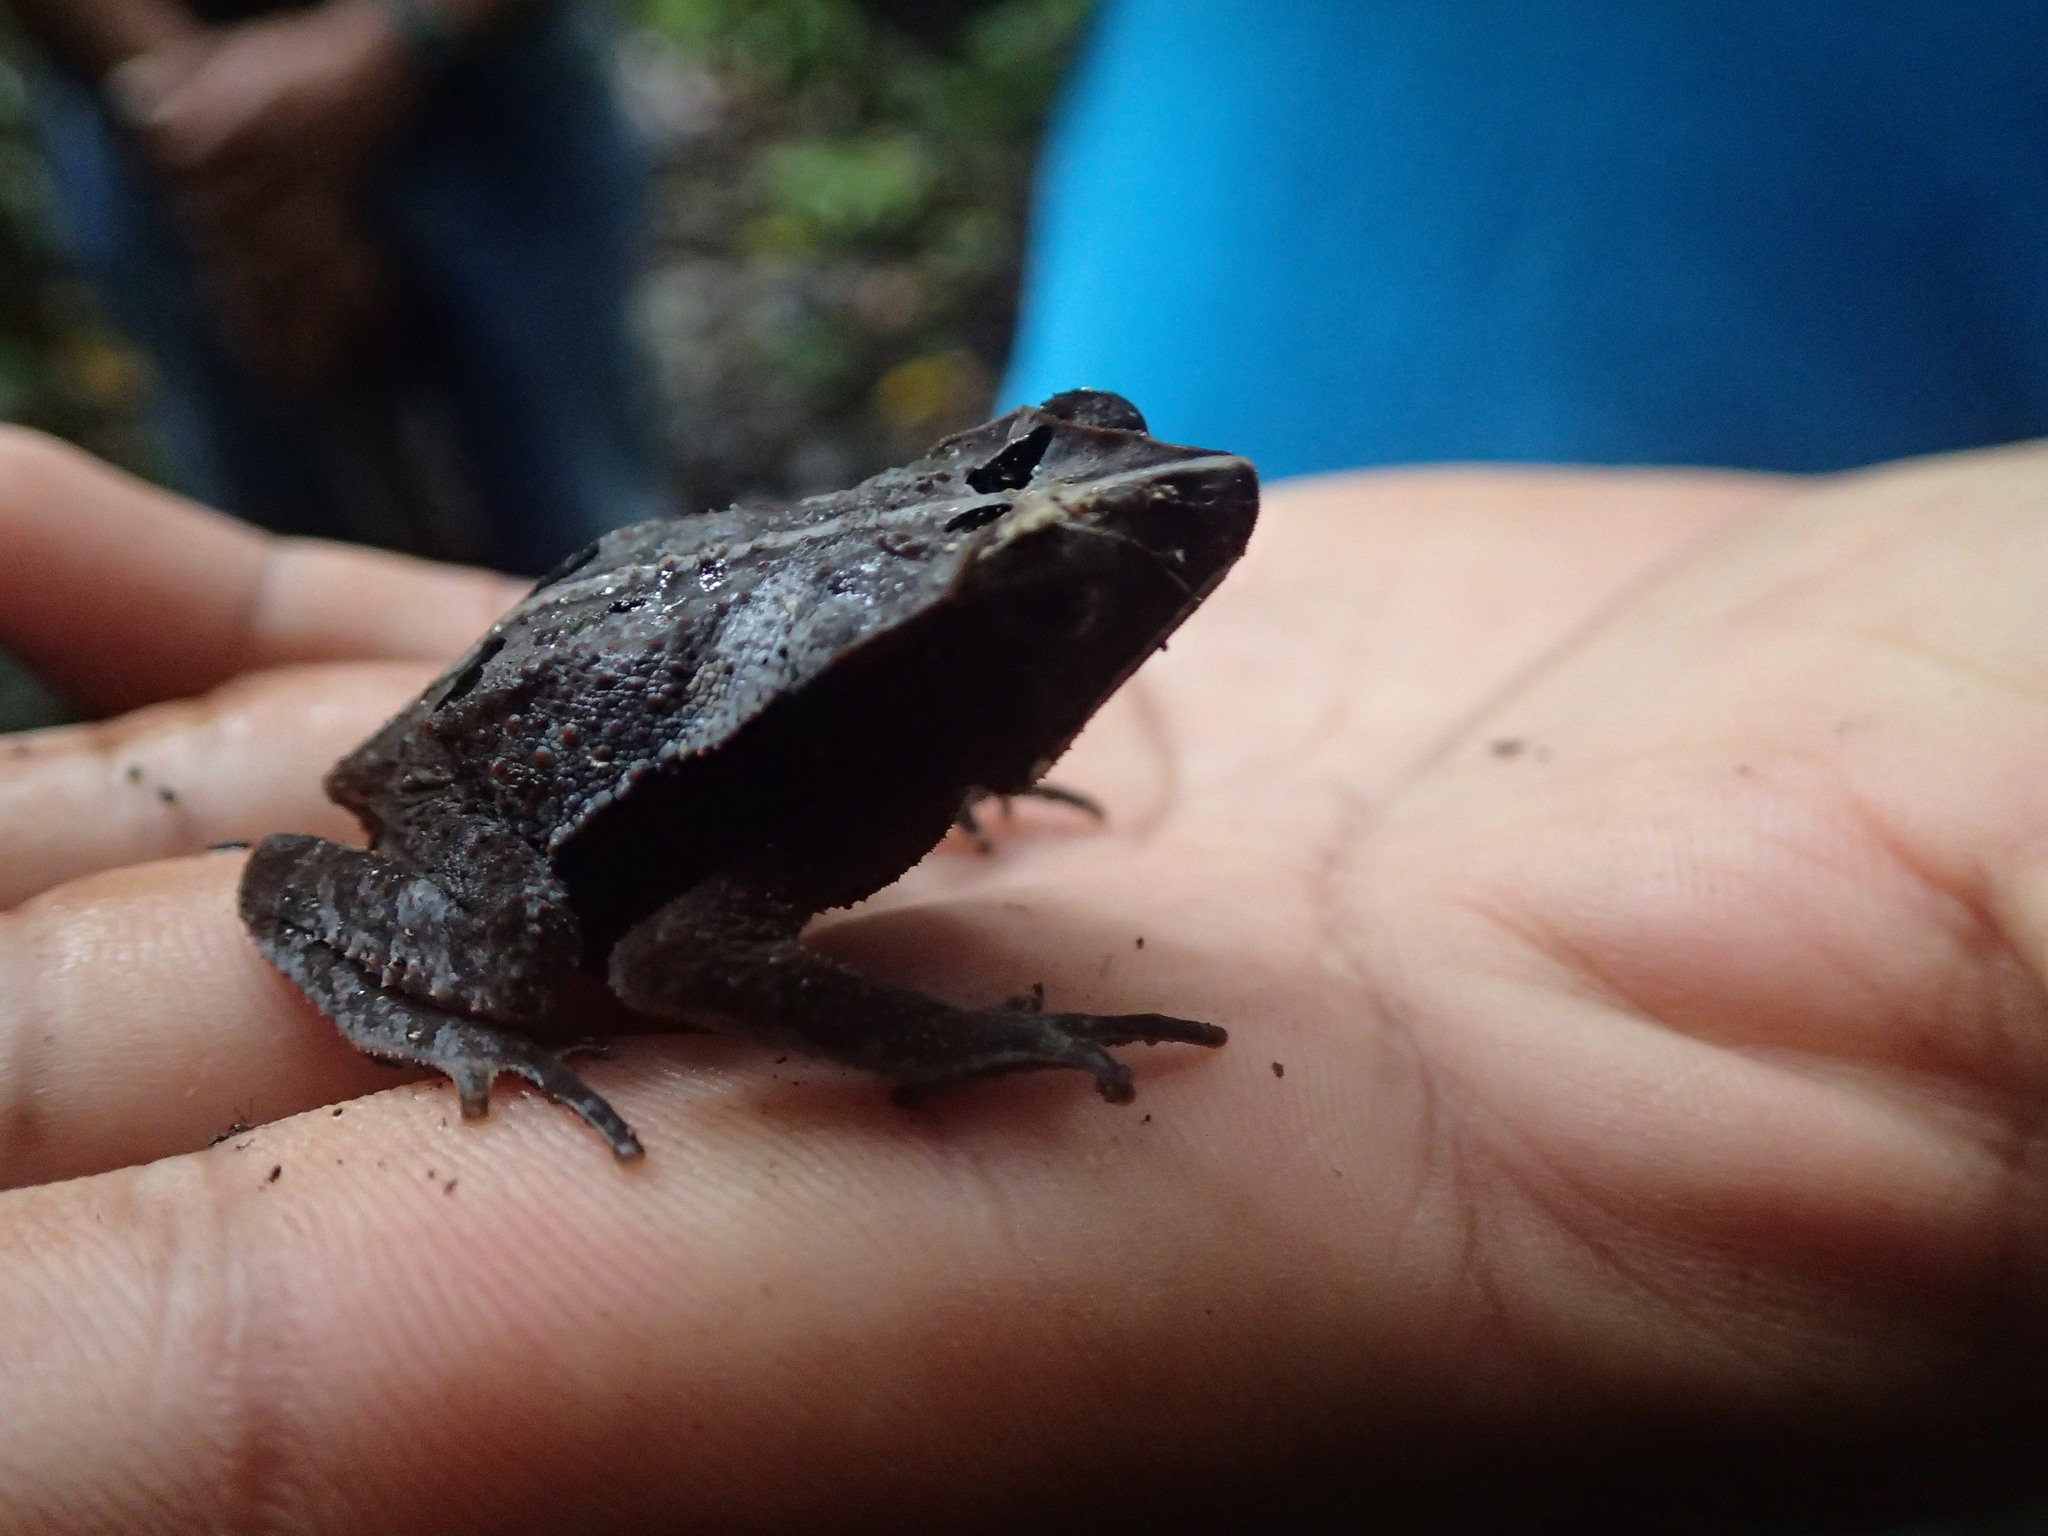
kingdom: Animalia
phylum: Chordata
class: Amphibia
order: Anura
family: Bufonidae
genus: Rhinella
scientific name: Rhinella margaritifera
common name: Mitred toad
